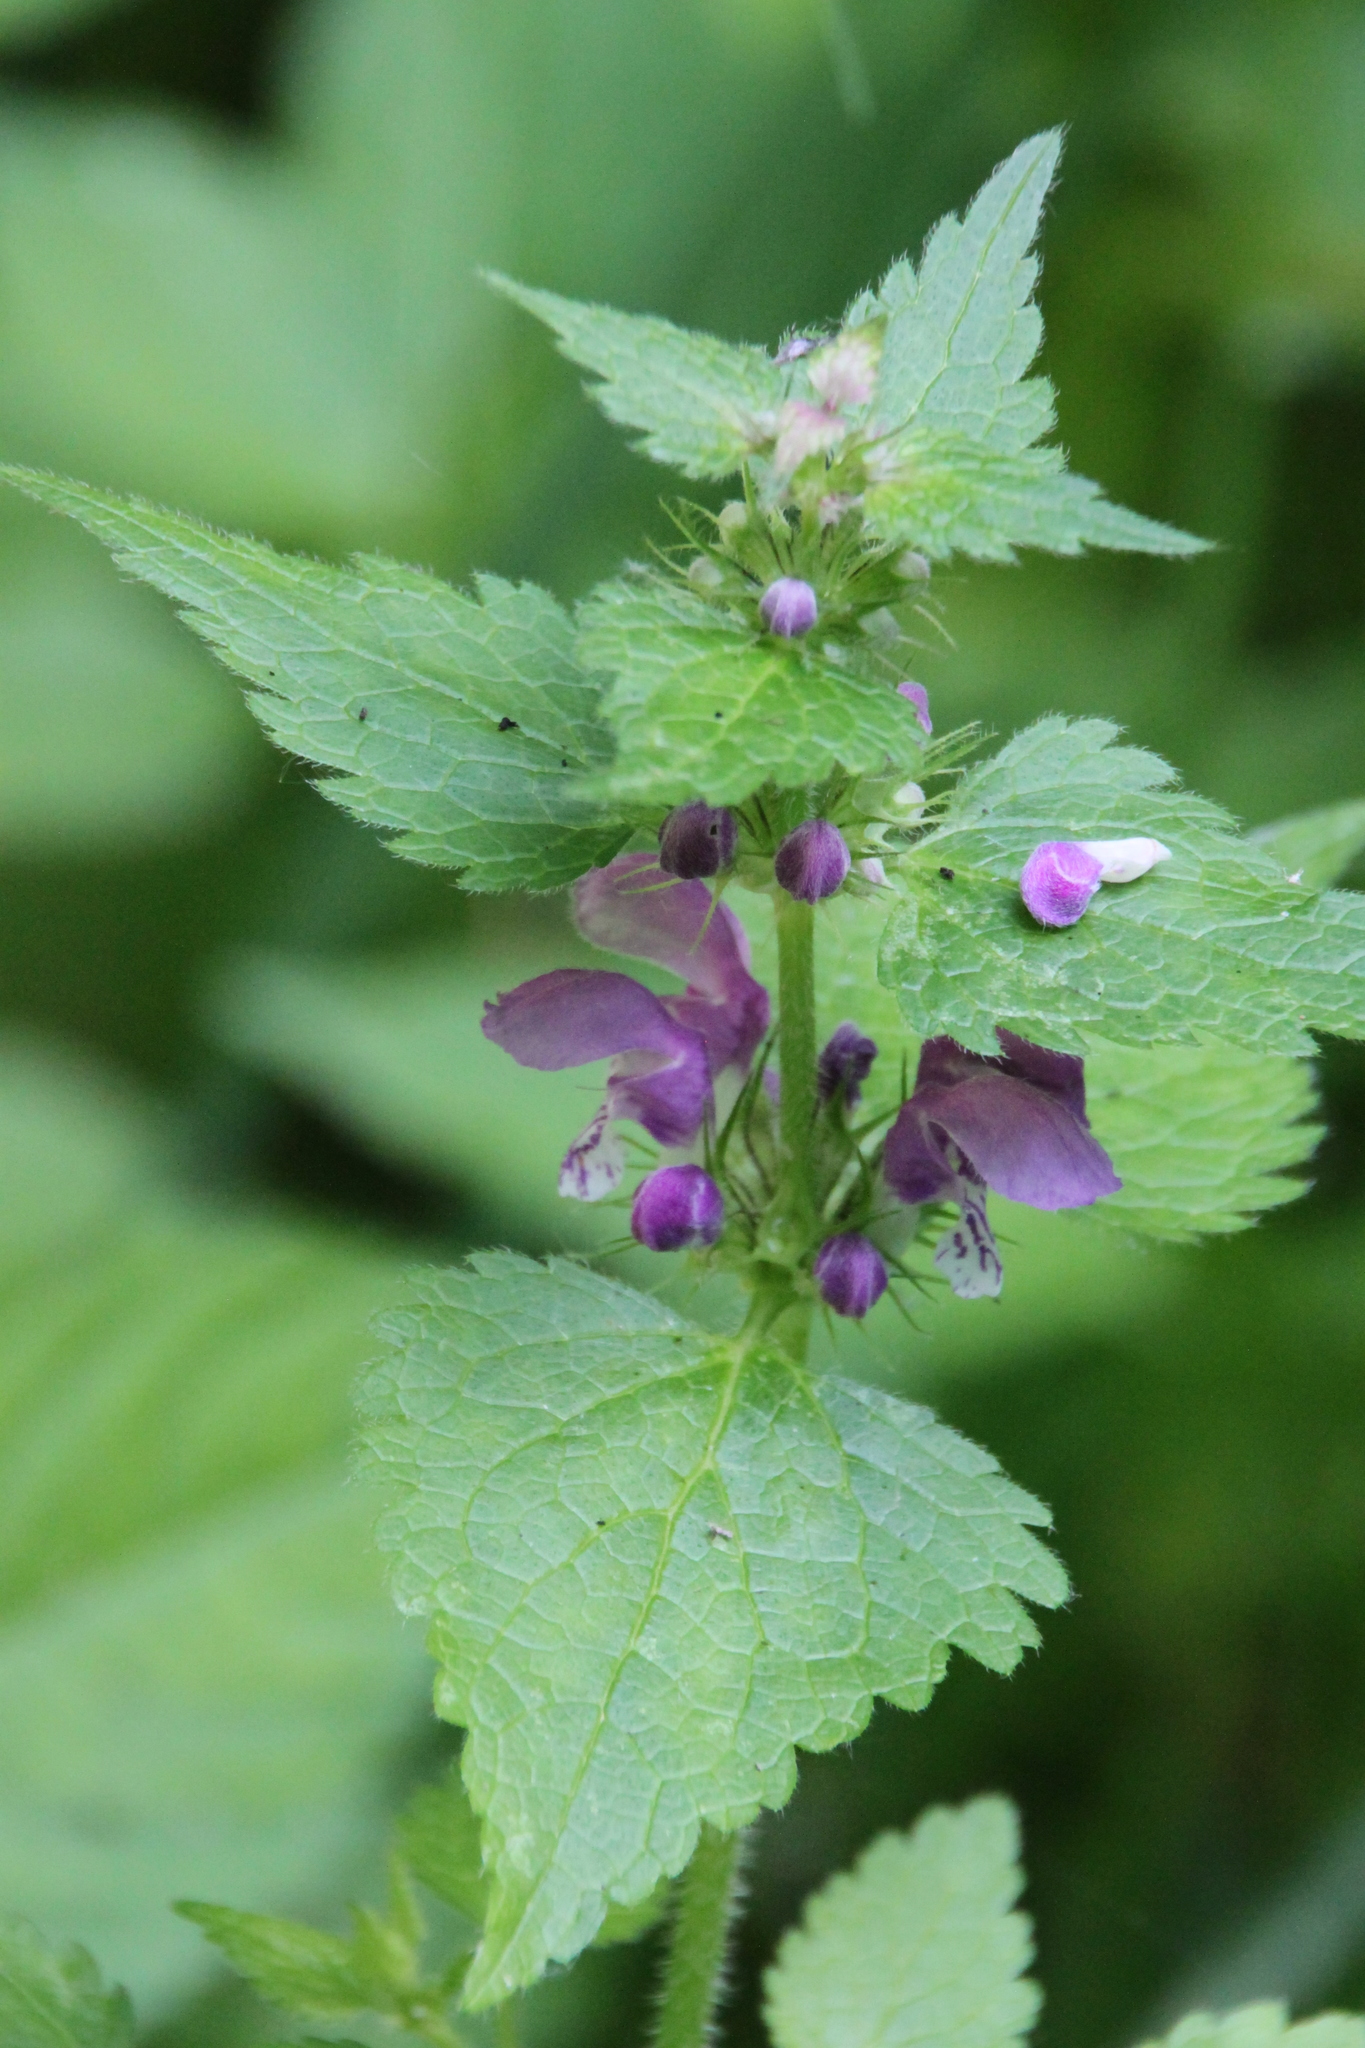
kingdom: Plantae
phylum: Tracheophyta
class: Magnoliopsida
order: Lamiales
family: Lamiaceae
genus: Lamium
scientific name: Lamium maculatum
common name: Spotted dead-nettle
